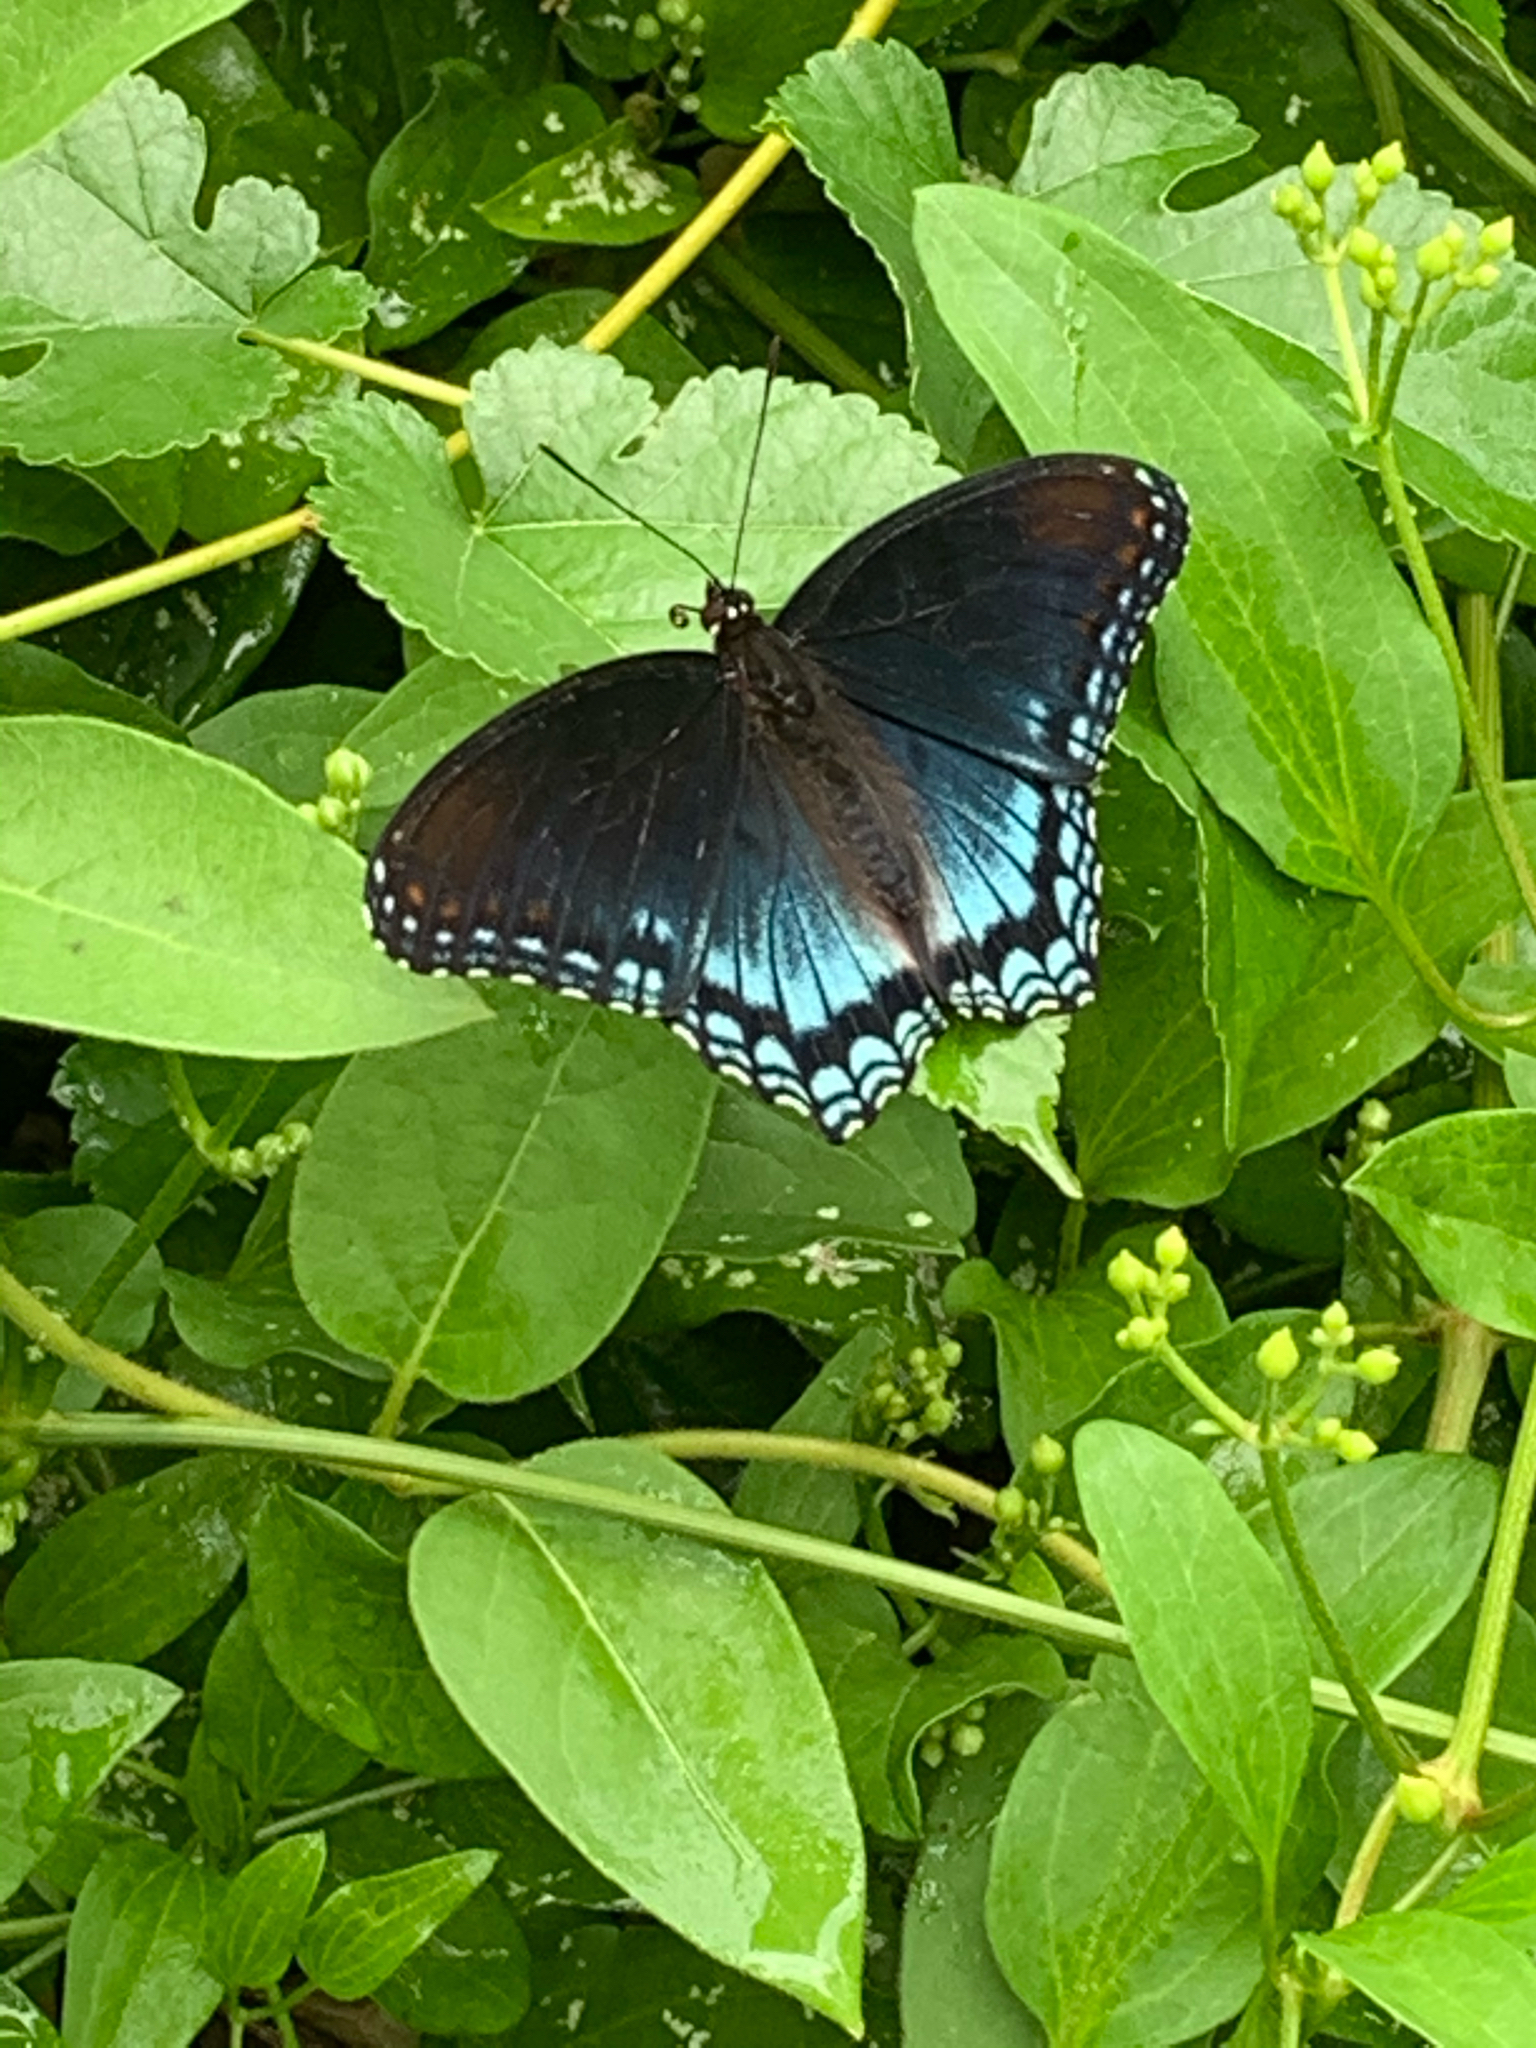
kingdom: Animalia
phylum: Arthropoda
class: Insecta
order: Lepidoptera
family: Nymphalidae
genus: Limenitis
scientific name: Limenitis astyanax
